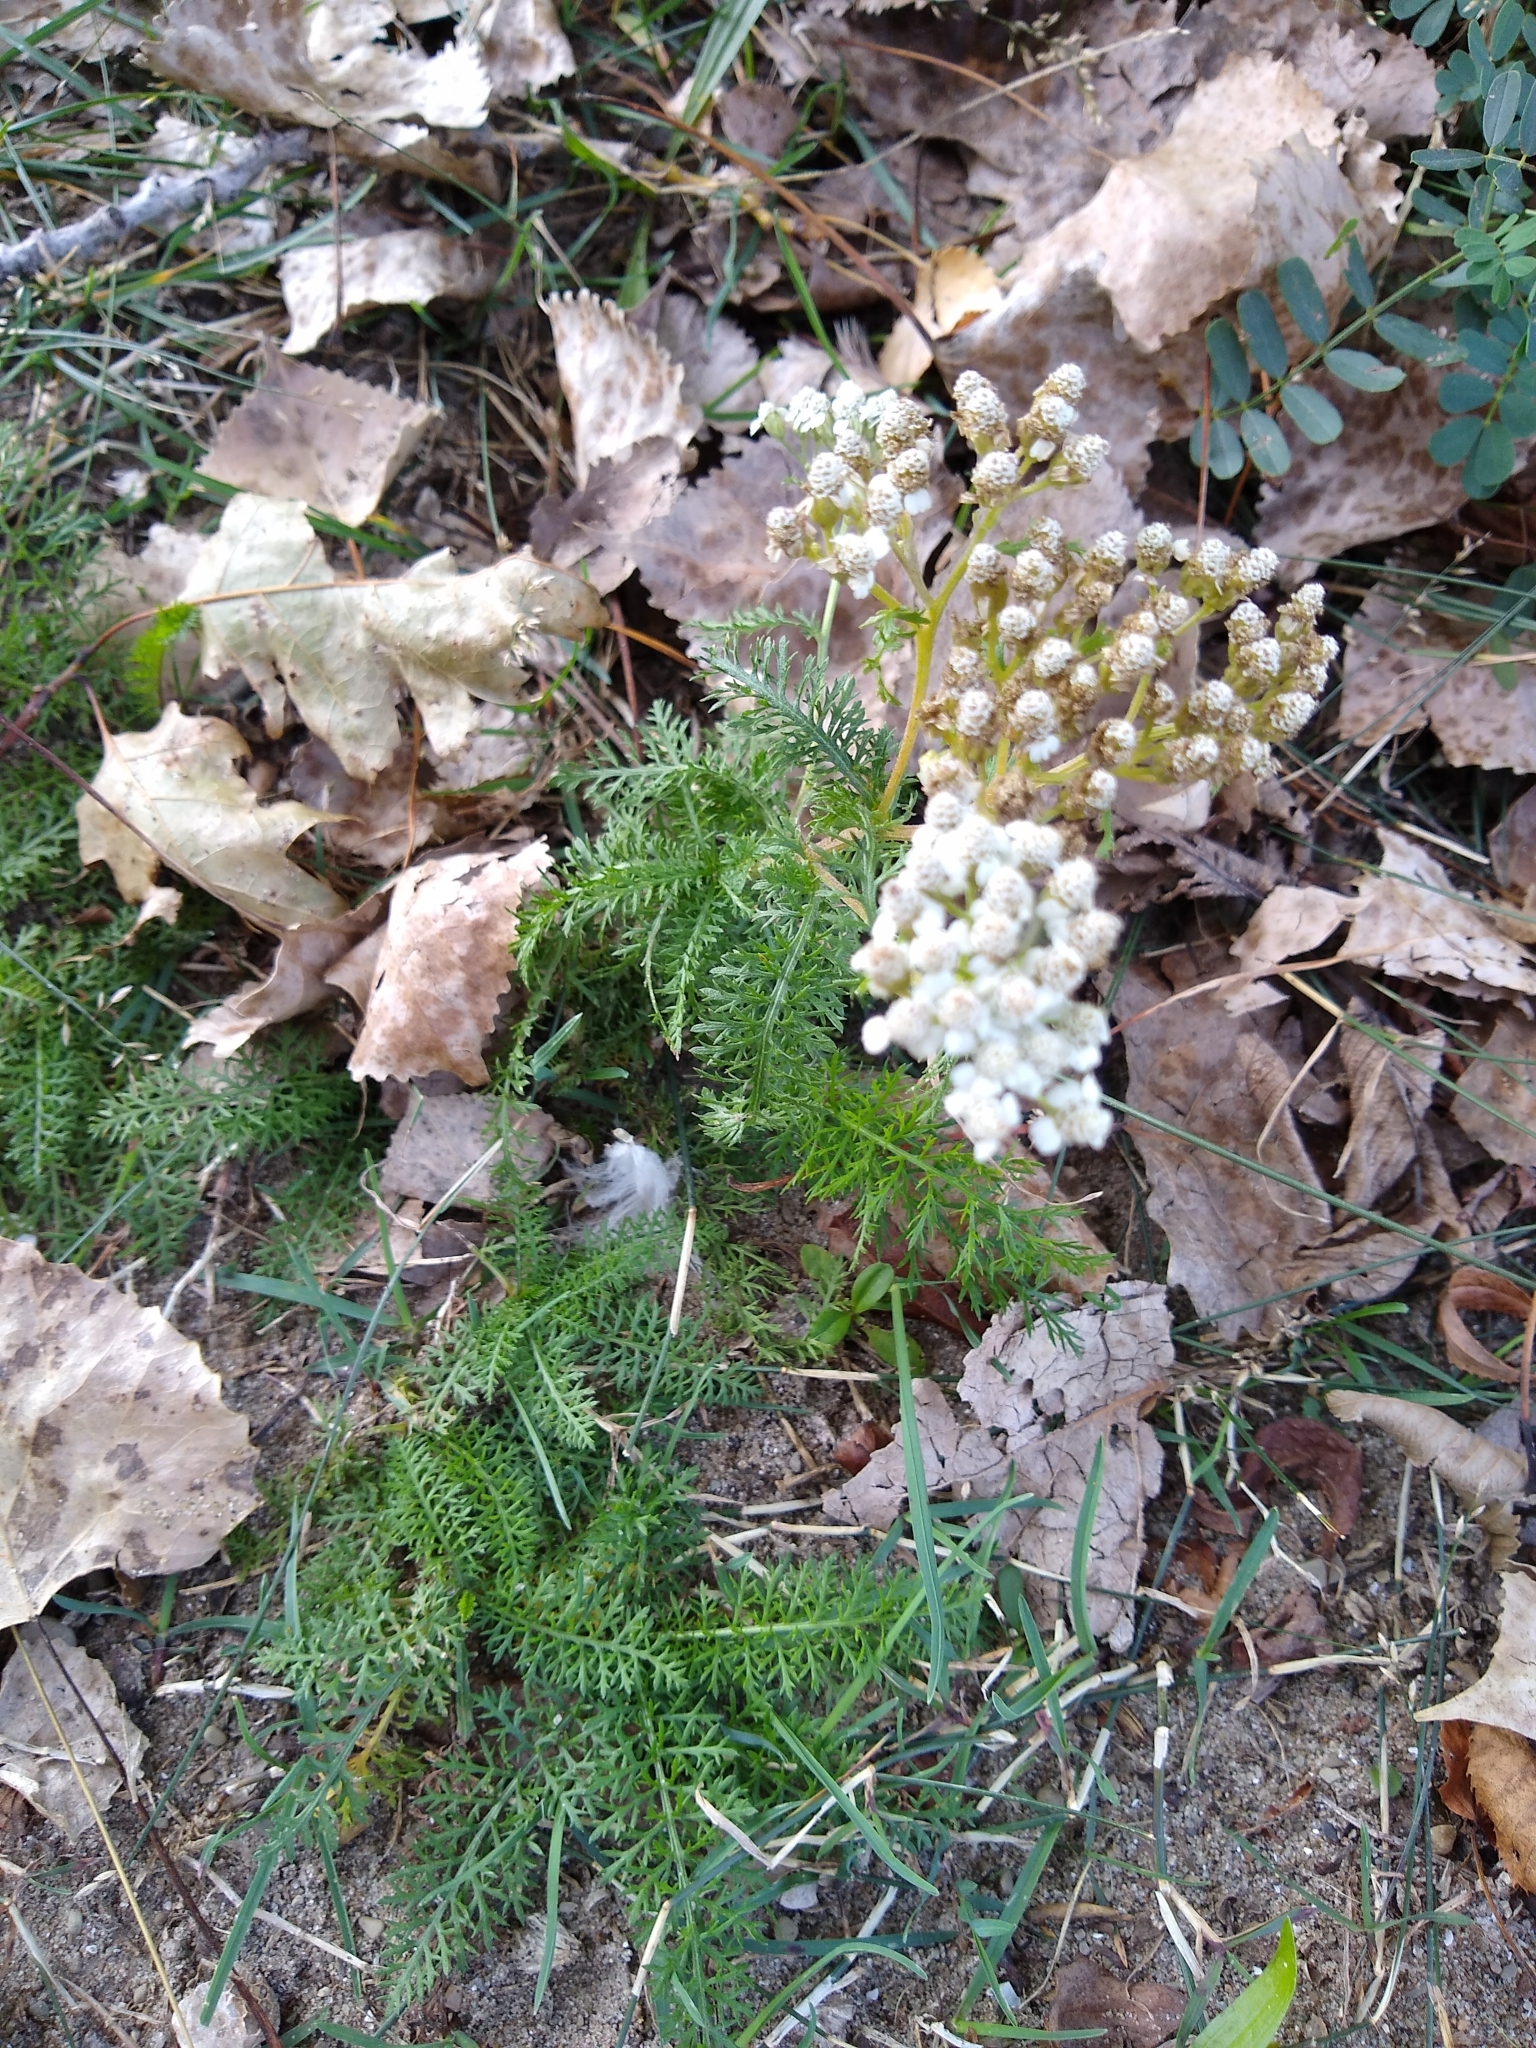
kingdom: Plantae
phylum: Tracheophyta
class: Magnoliopsida
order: Asterales
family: Asteraceae
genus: Achillea
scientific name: Achillea millefolium
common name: Yarrow
